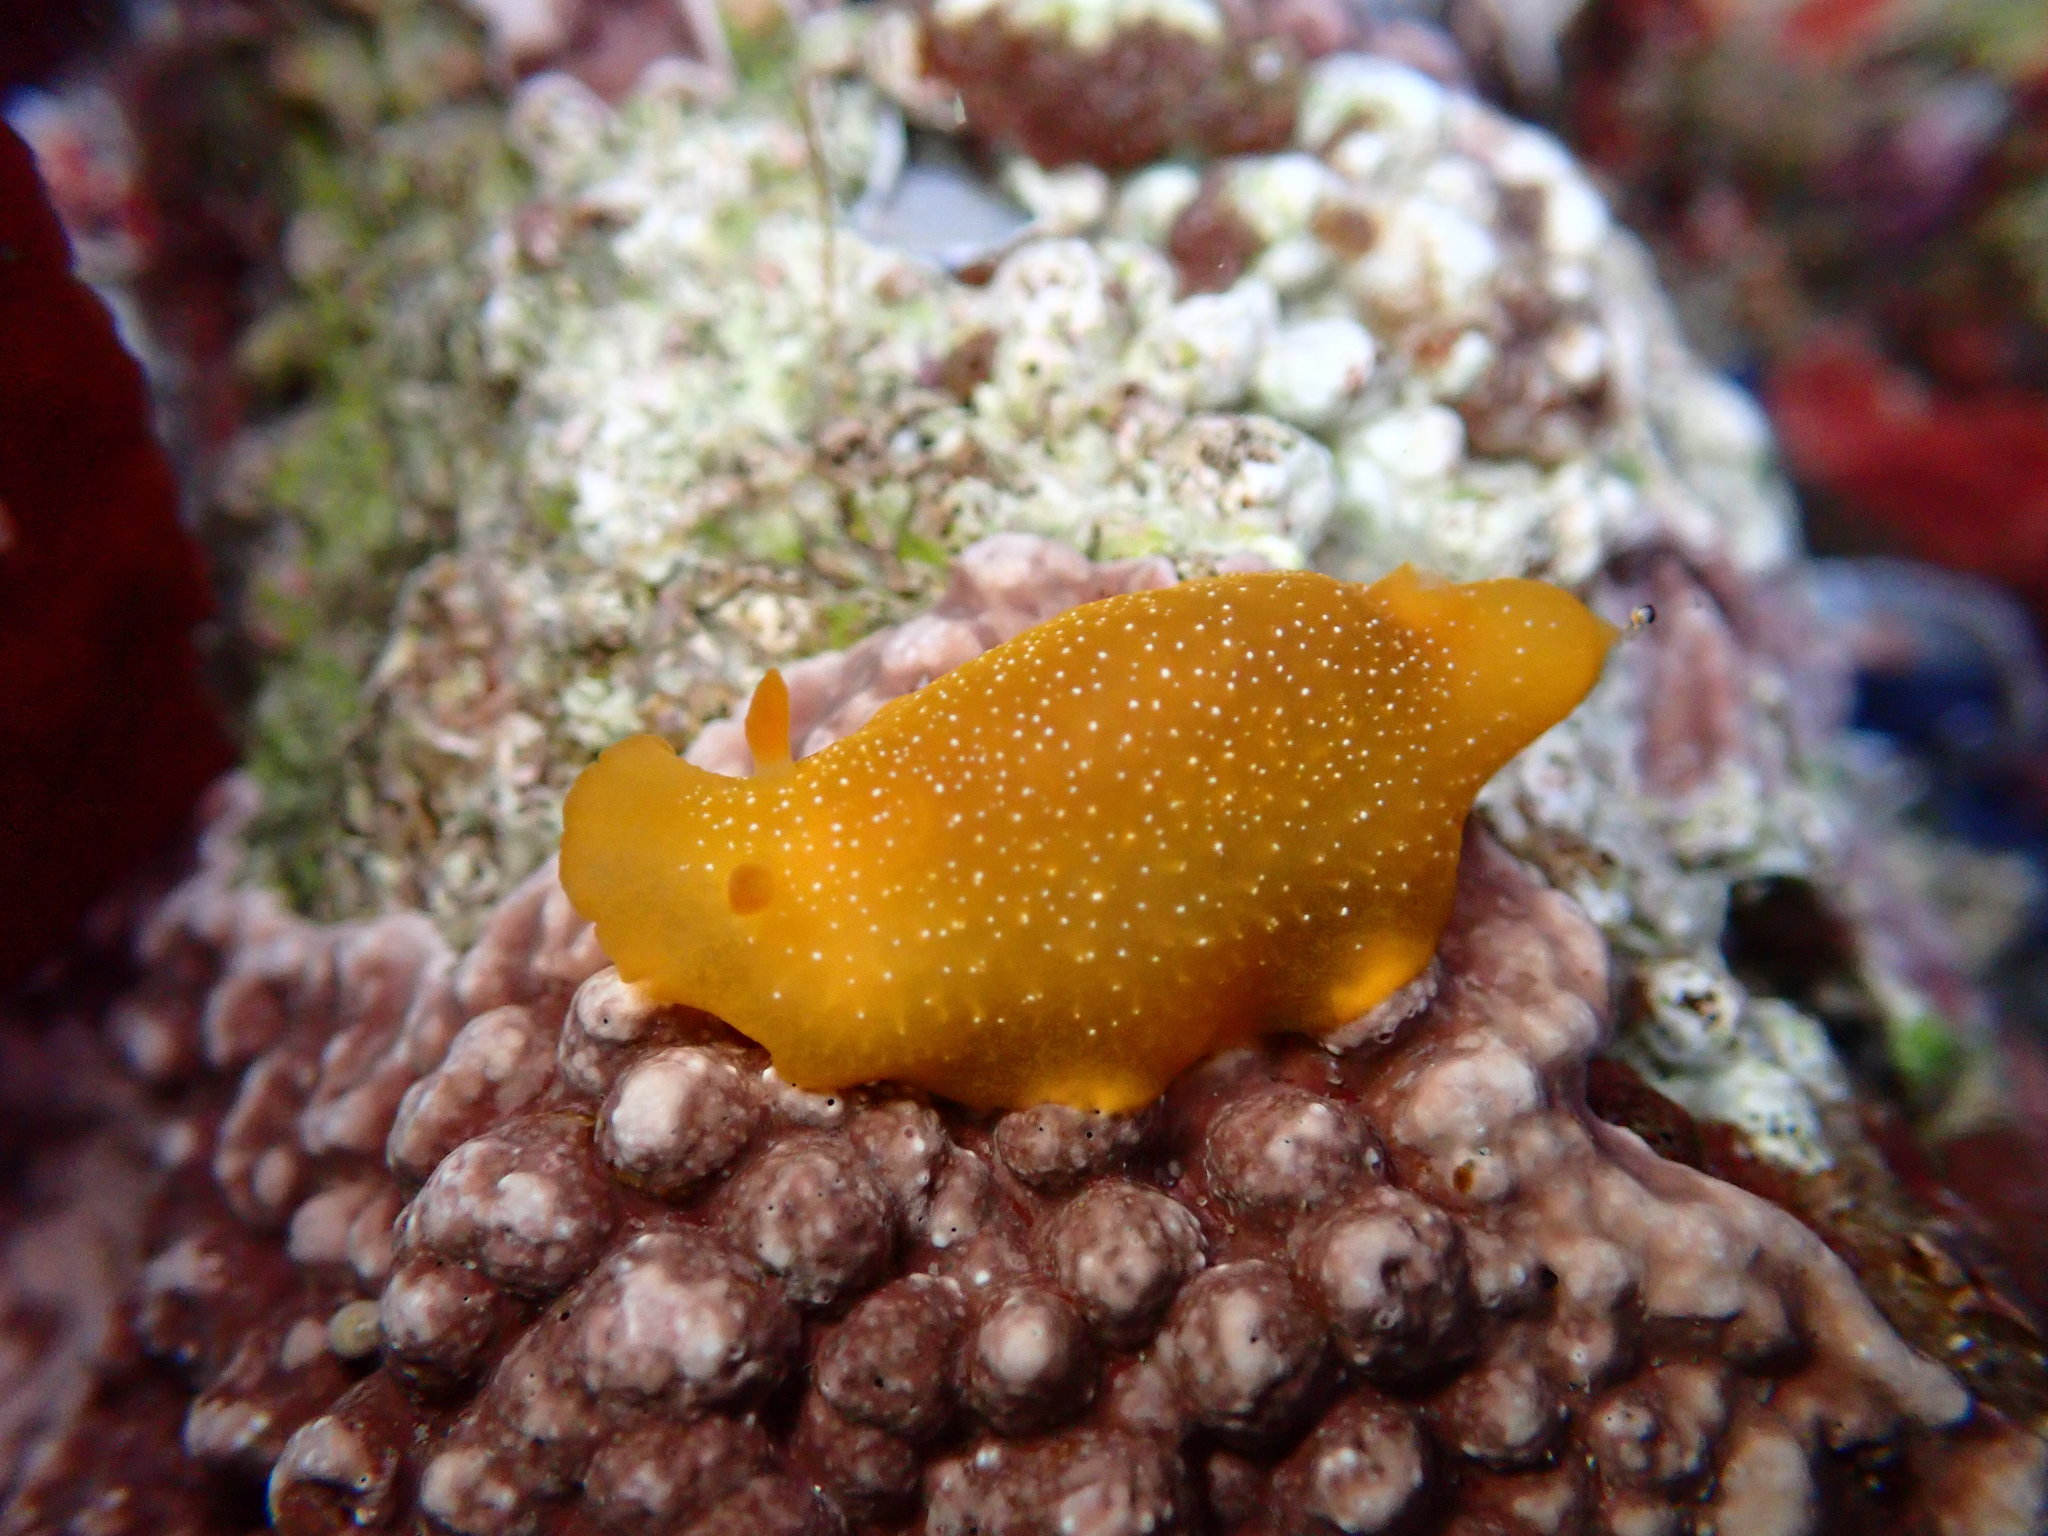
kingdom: Animalia
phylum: Mollusca
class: Gastropoda
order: Nudibranchia
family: Dendrodorididae
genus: Doriopsilla
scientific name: Doriopsilla fulva
